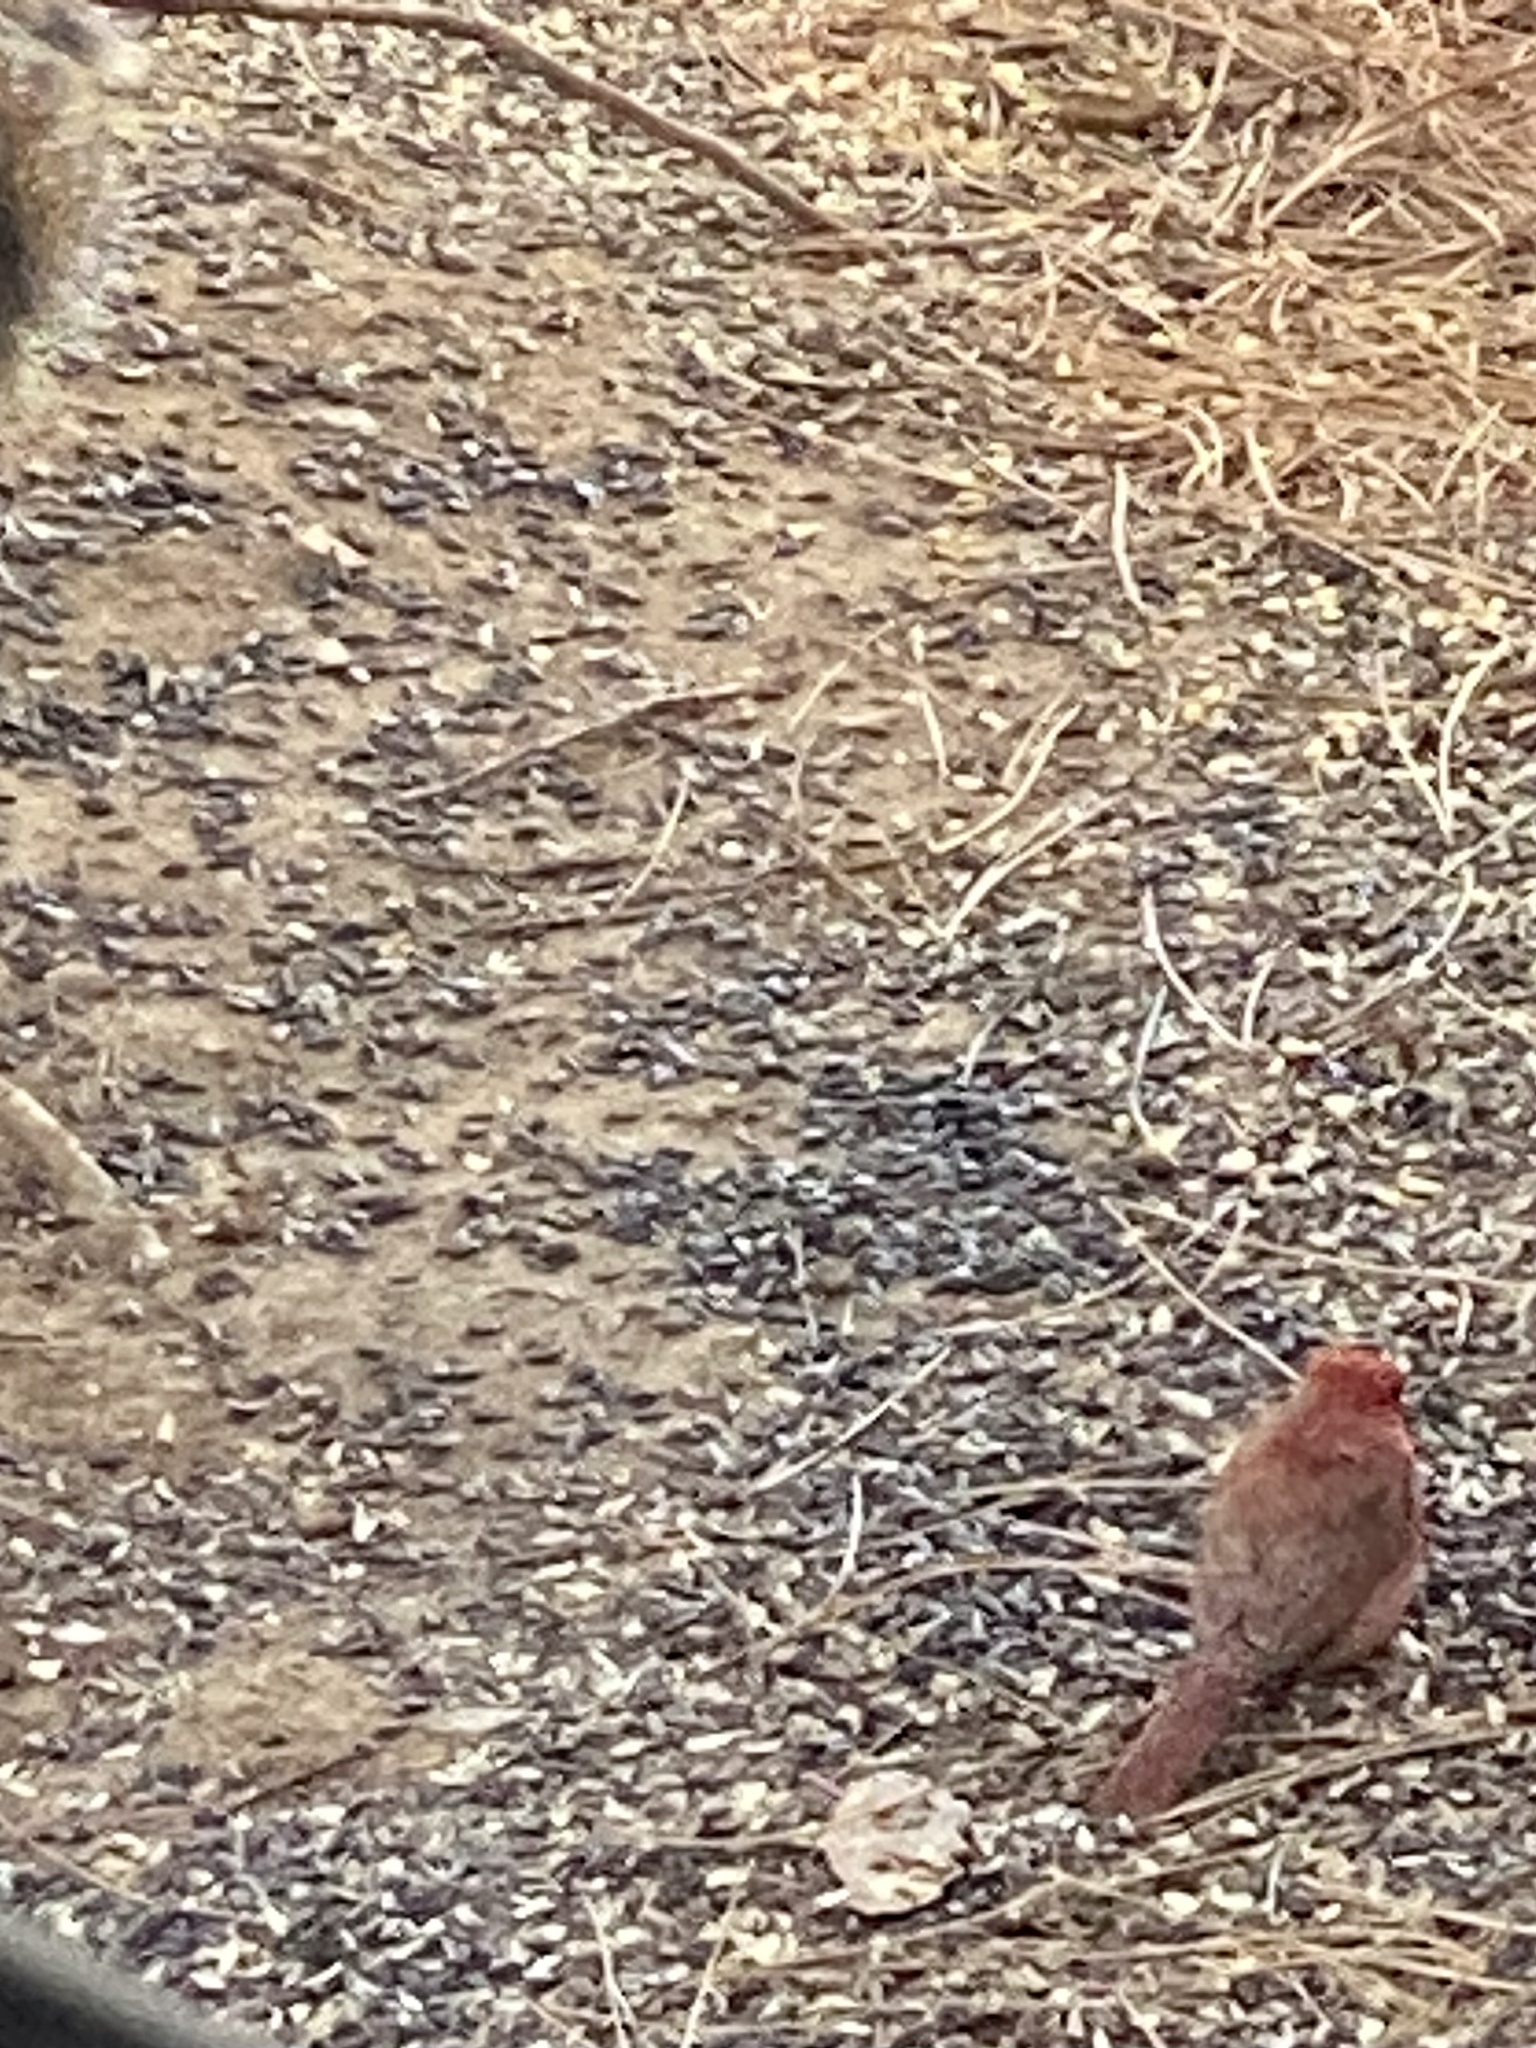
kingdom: Animalia
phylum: Chordata
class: Aves
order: Passeriformes
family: Cardinalidae
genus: Cardinalis
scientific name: Cardinalis cardinalis
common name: Northern cardinal
